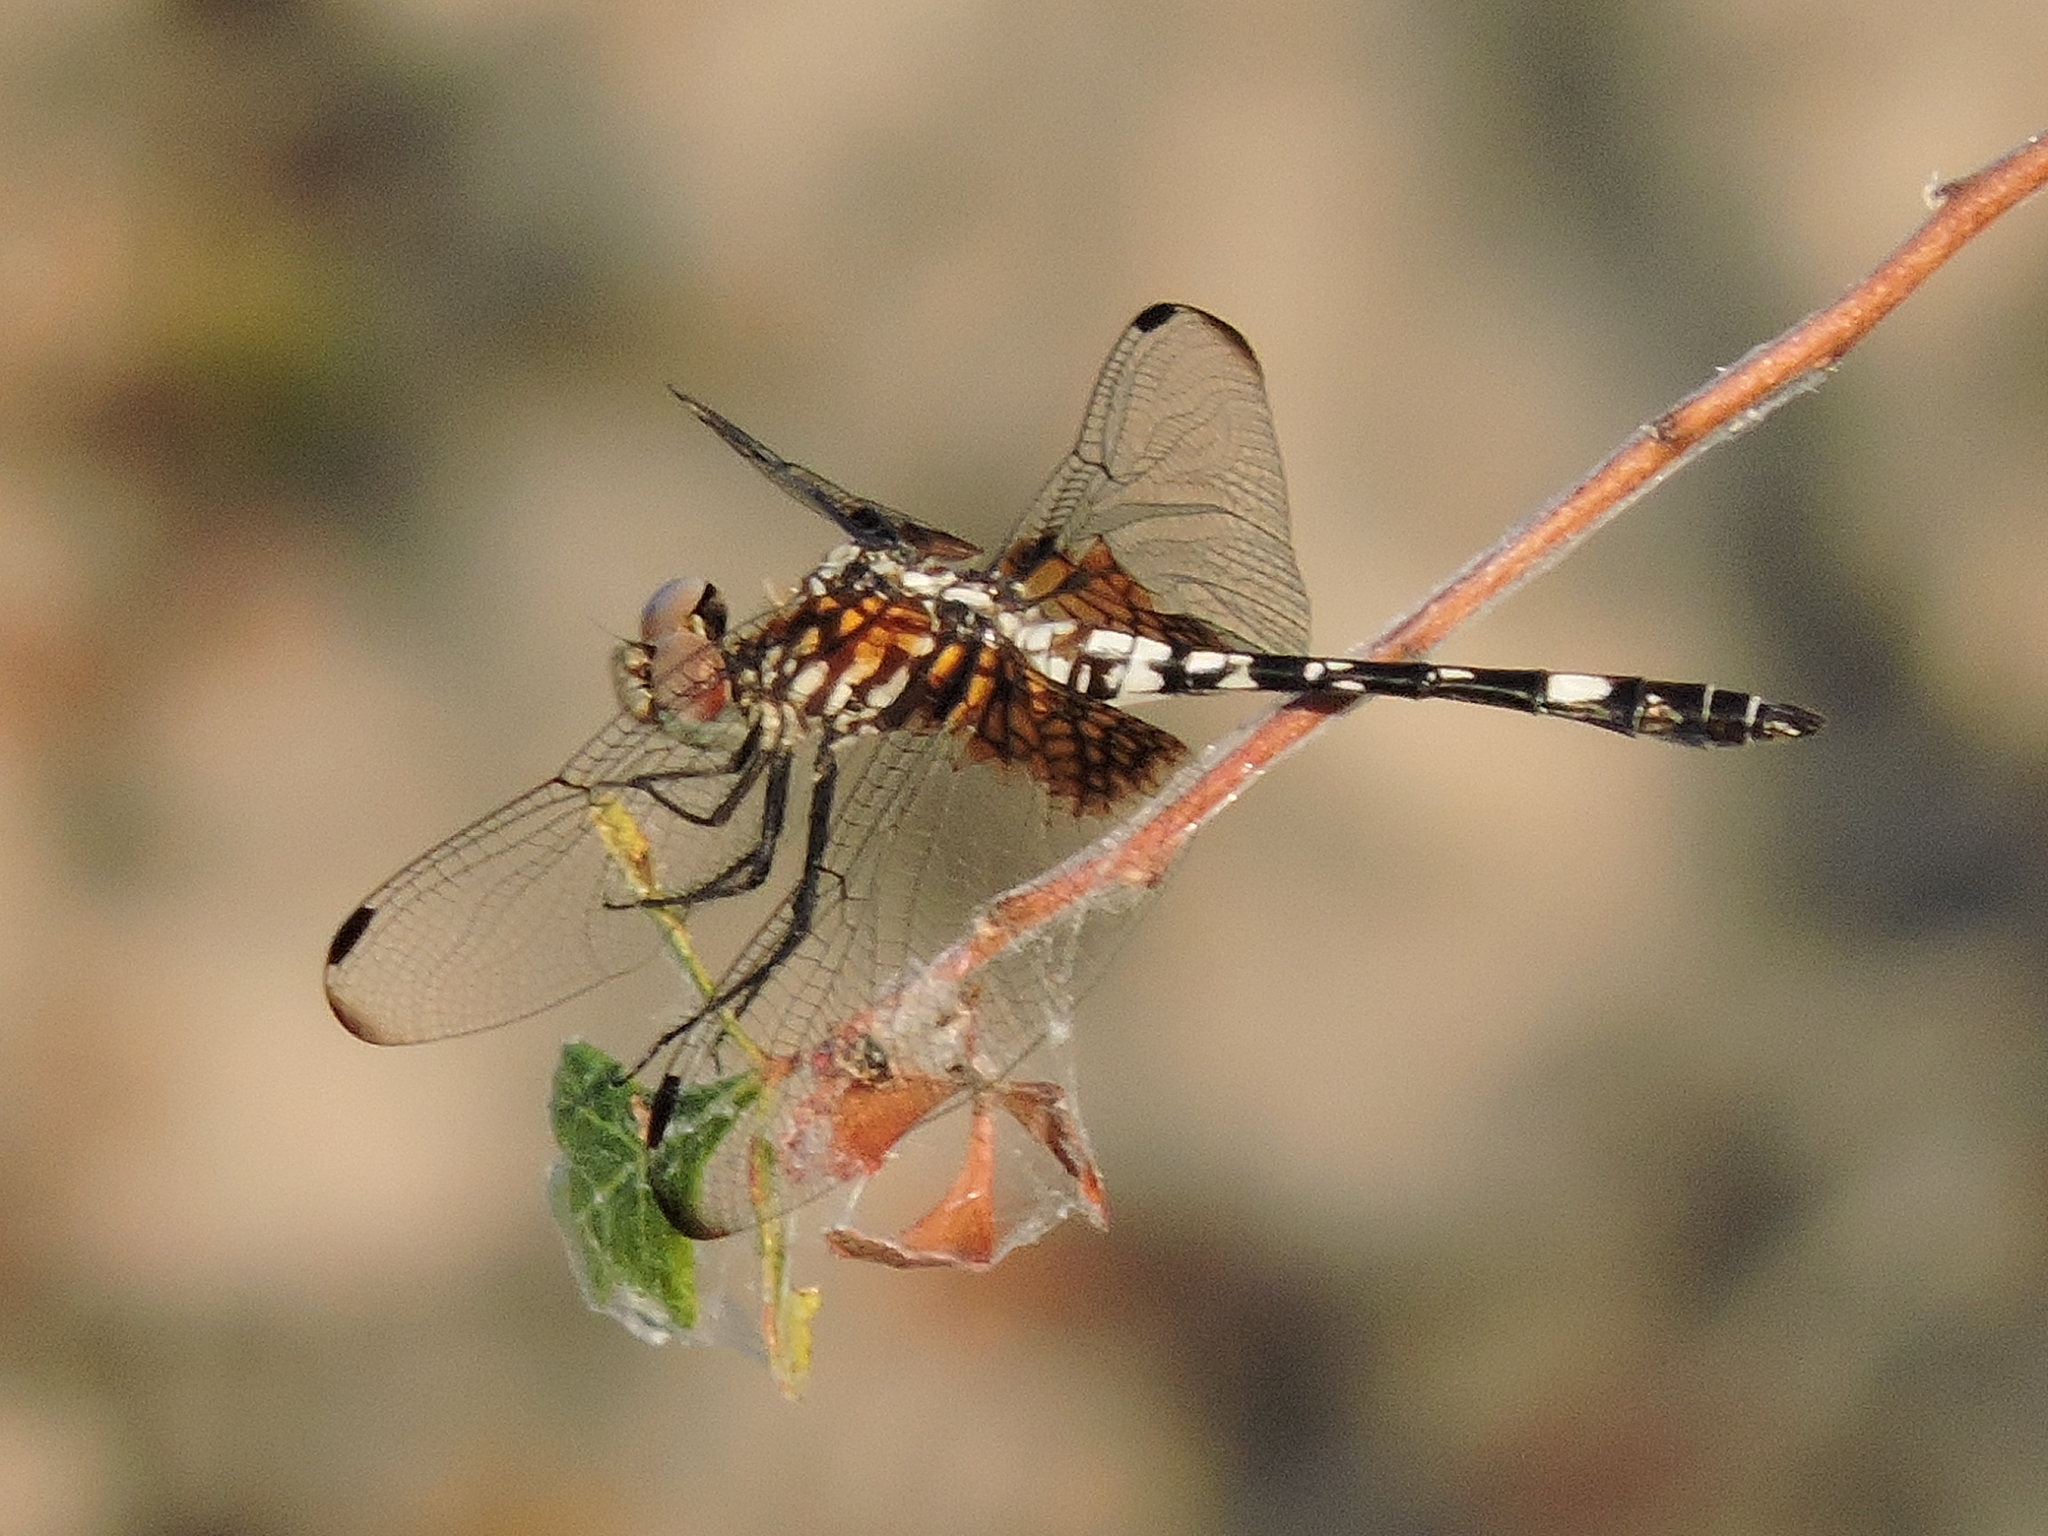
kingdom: Animalia
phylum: Arthropoda
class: Insecta
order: Odonata
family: Libellulidae
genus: Dythemis
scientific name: Dythemis fugax
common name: Checkered setwing
